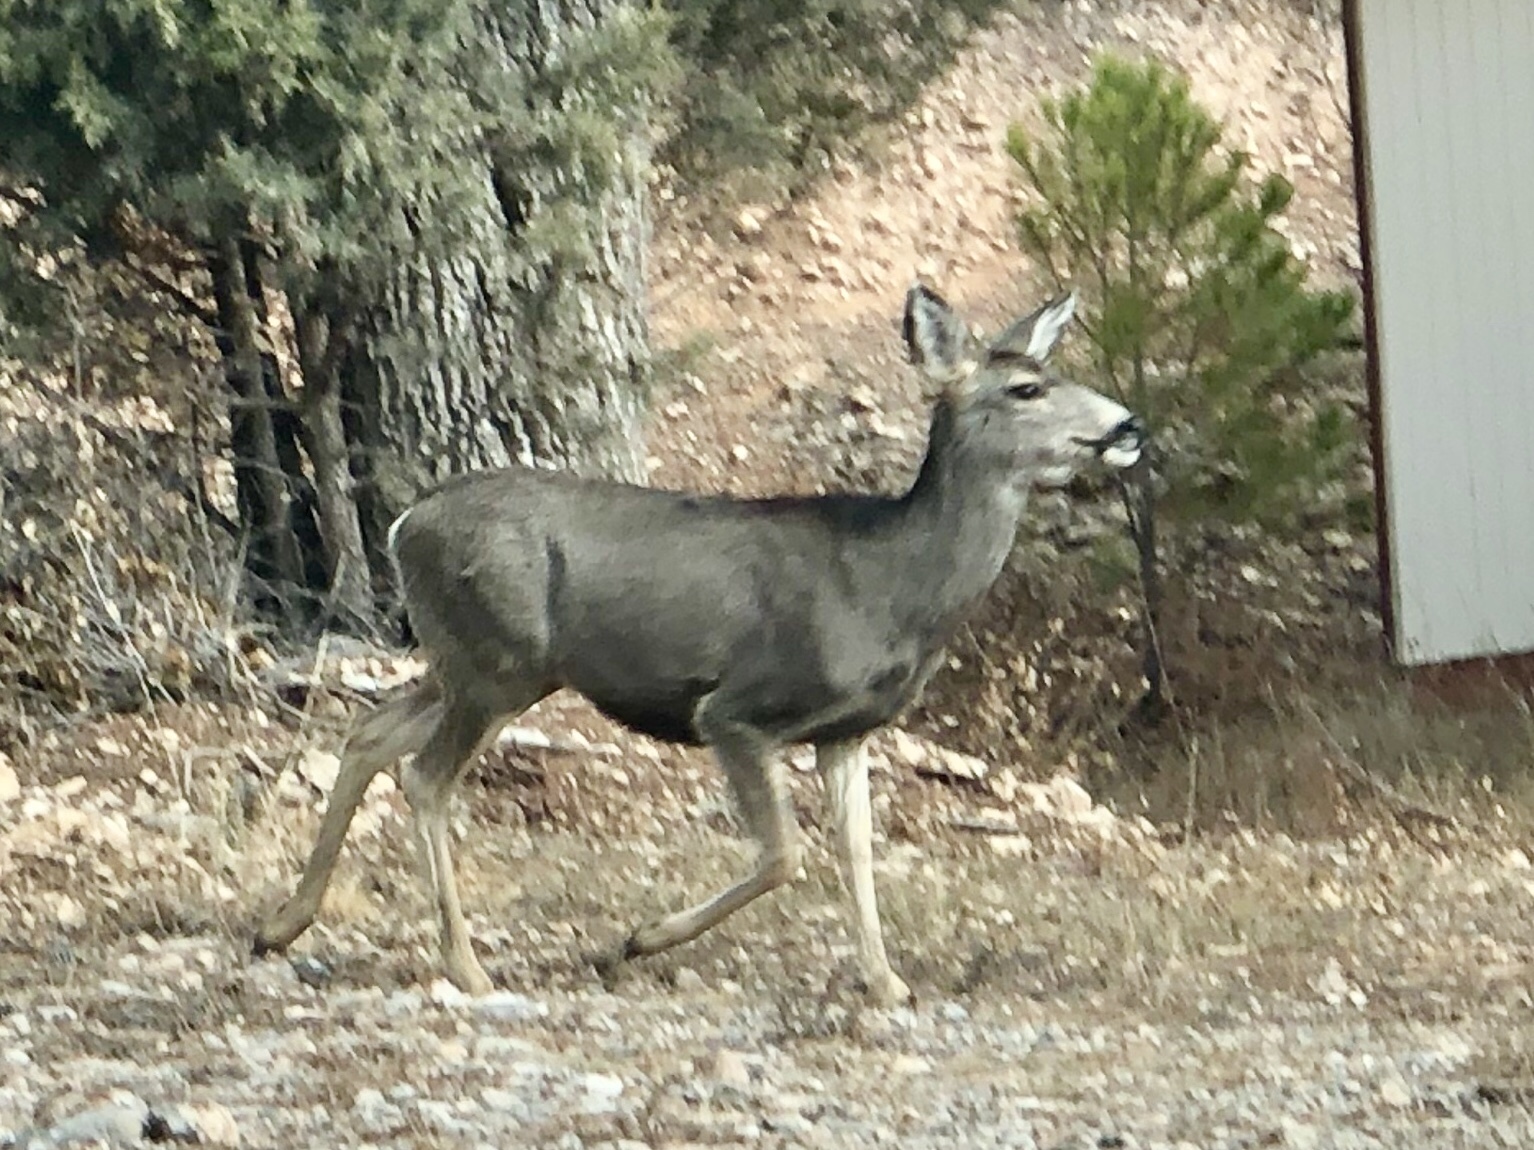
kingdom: Animalia
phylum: Chordata
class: Mammalia
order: Artiodactyla
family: Cervidae
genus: Odocoileus
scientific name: Odocoileus hemionus
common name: Mule deer
